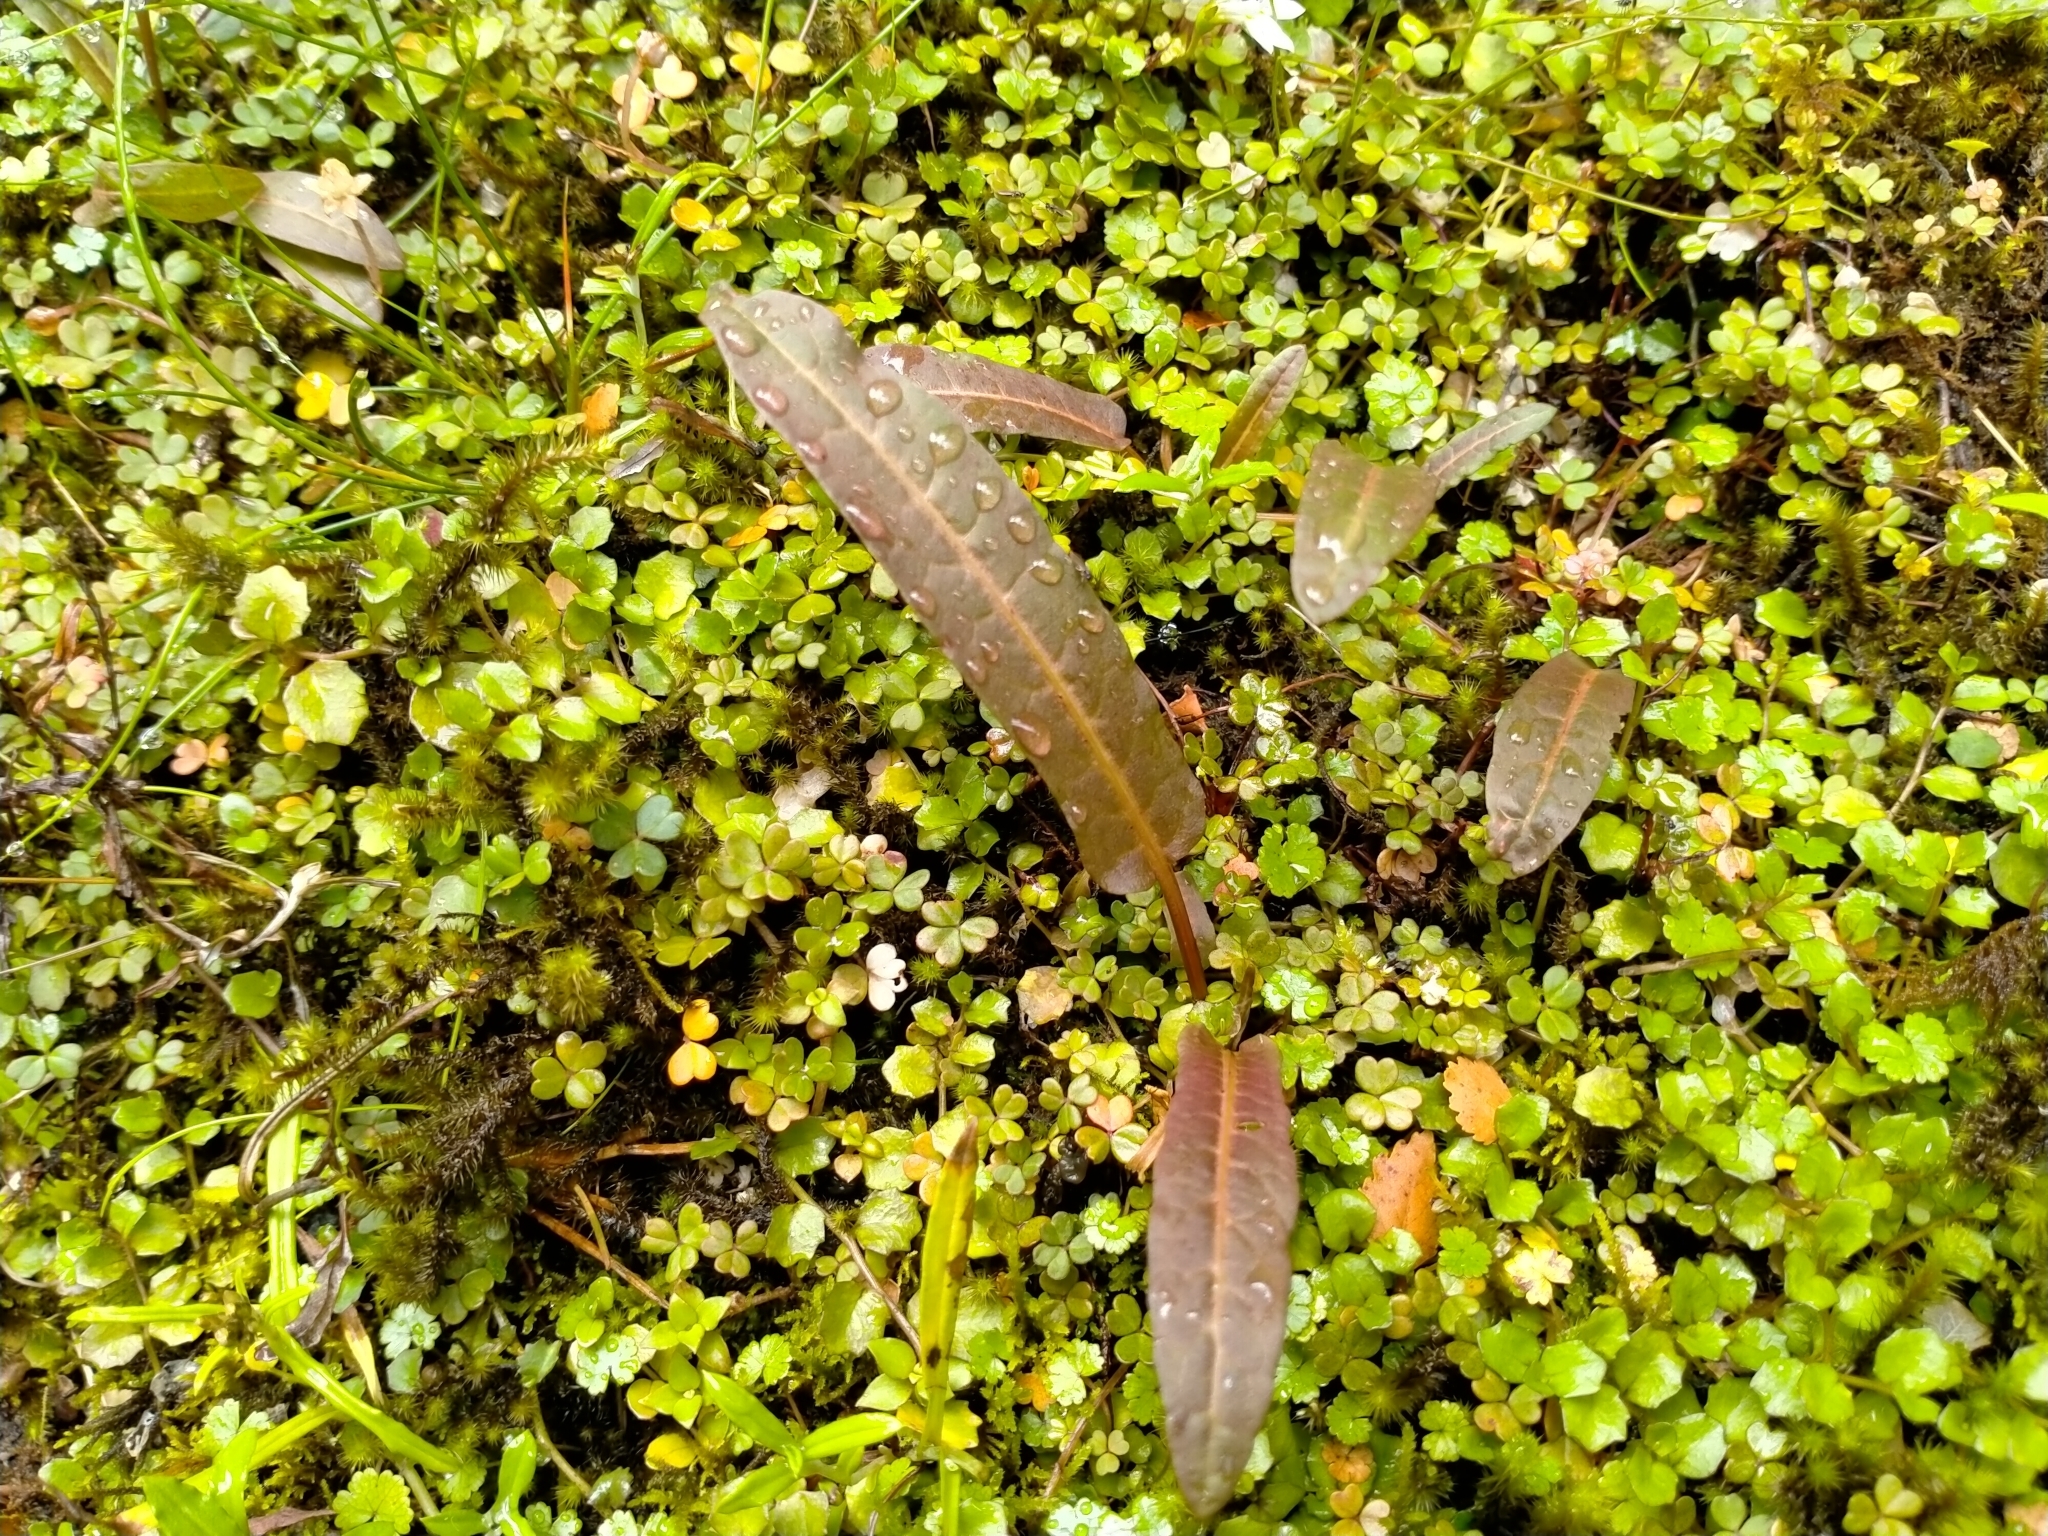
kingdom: Plantae
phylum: Tracheophyta
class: Magnoliopsida
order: Caryophyllales
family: Polygonaceae
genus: Rumex
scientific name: Rumex flexuosus
